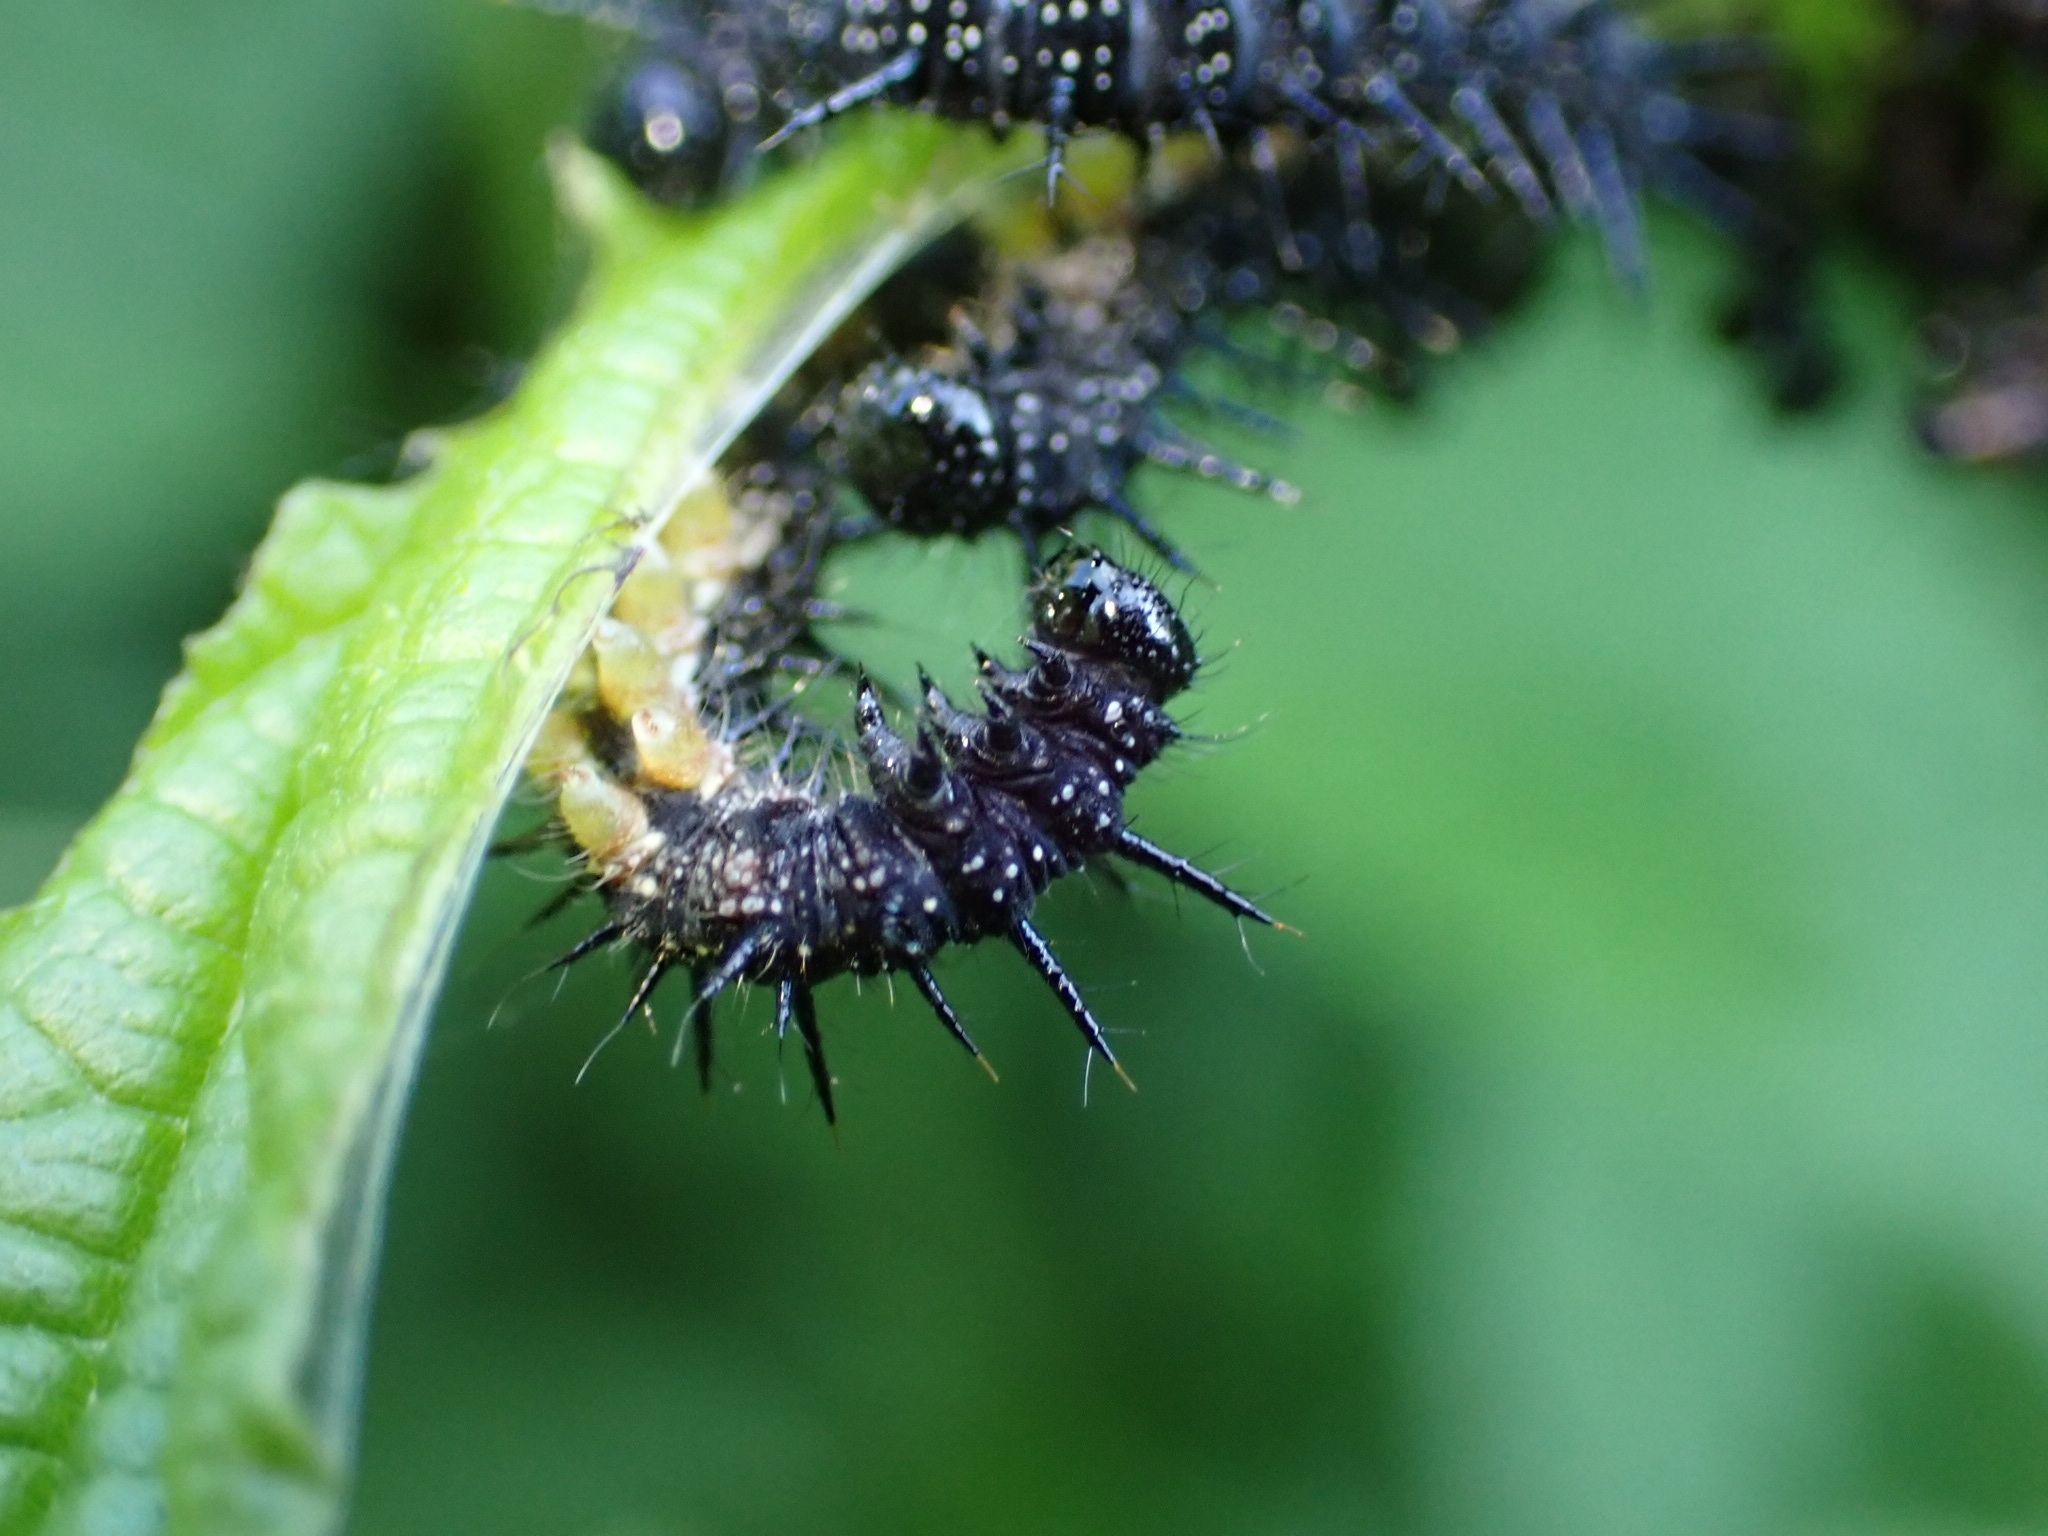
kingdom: Animalia
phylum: Arthropoda
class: Insecta
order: Lepidoptera
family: Nymphalidae
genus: Aglais
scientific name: Aglais io
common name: Peacock
